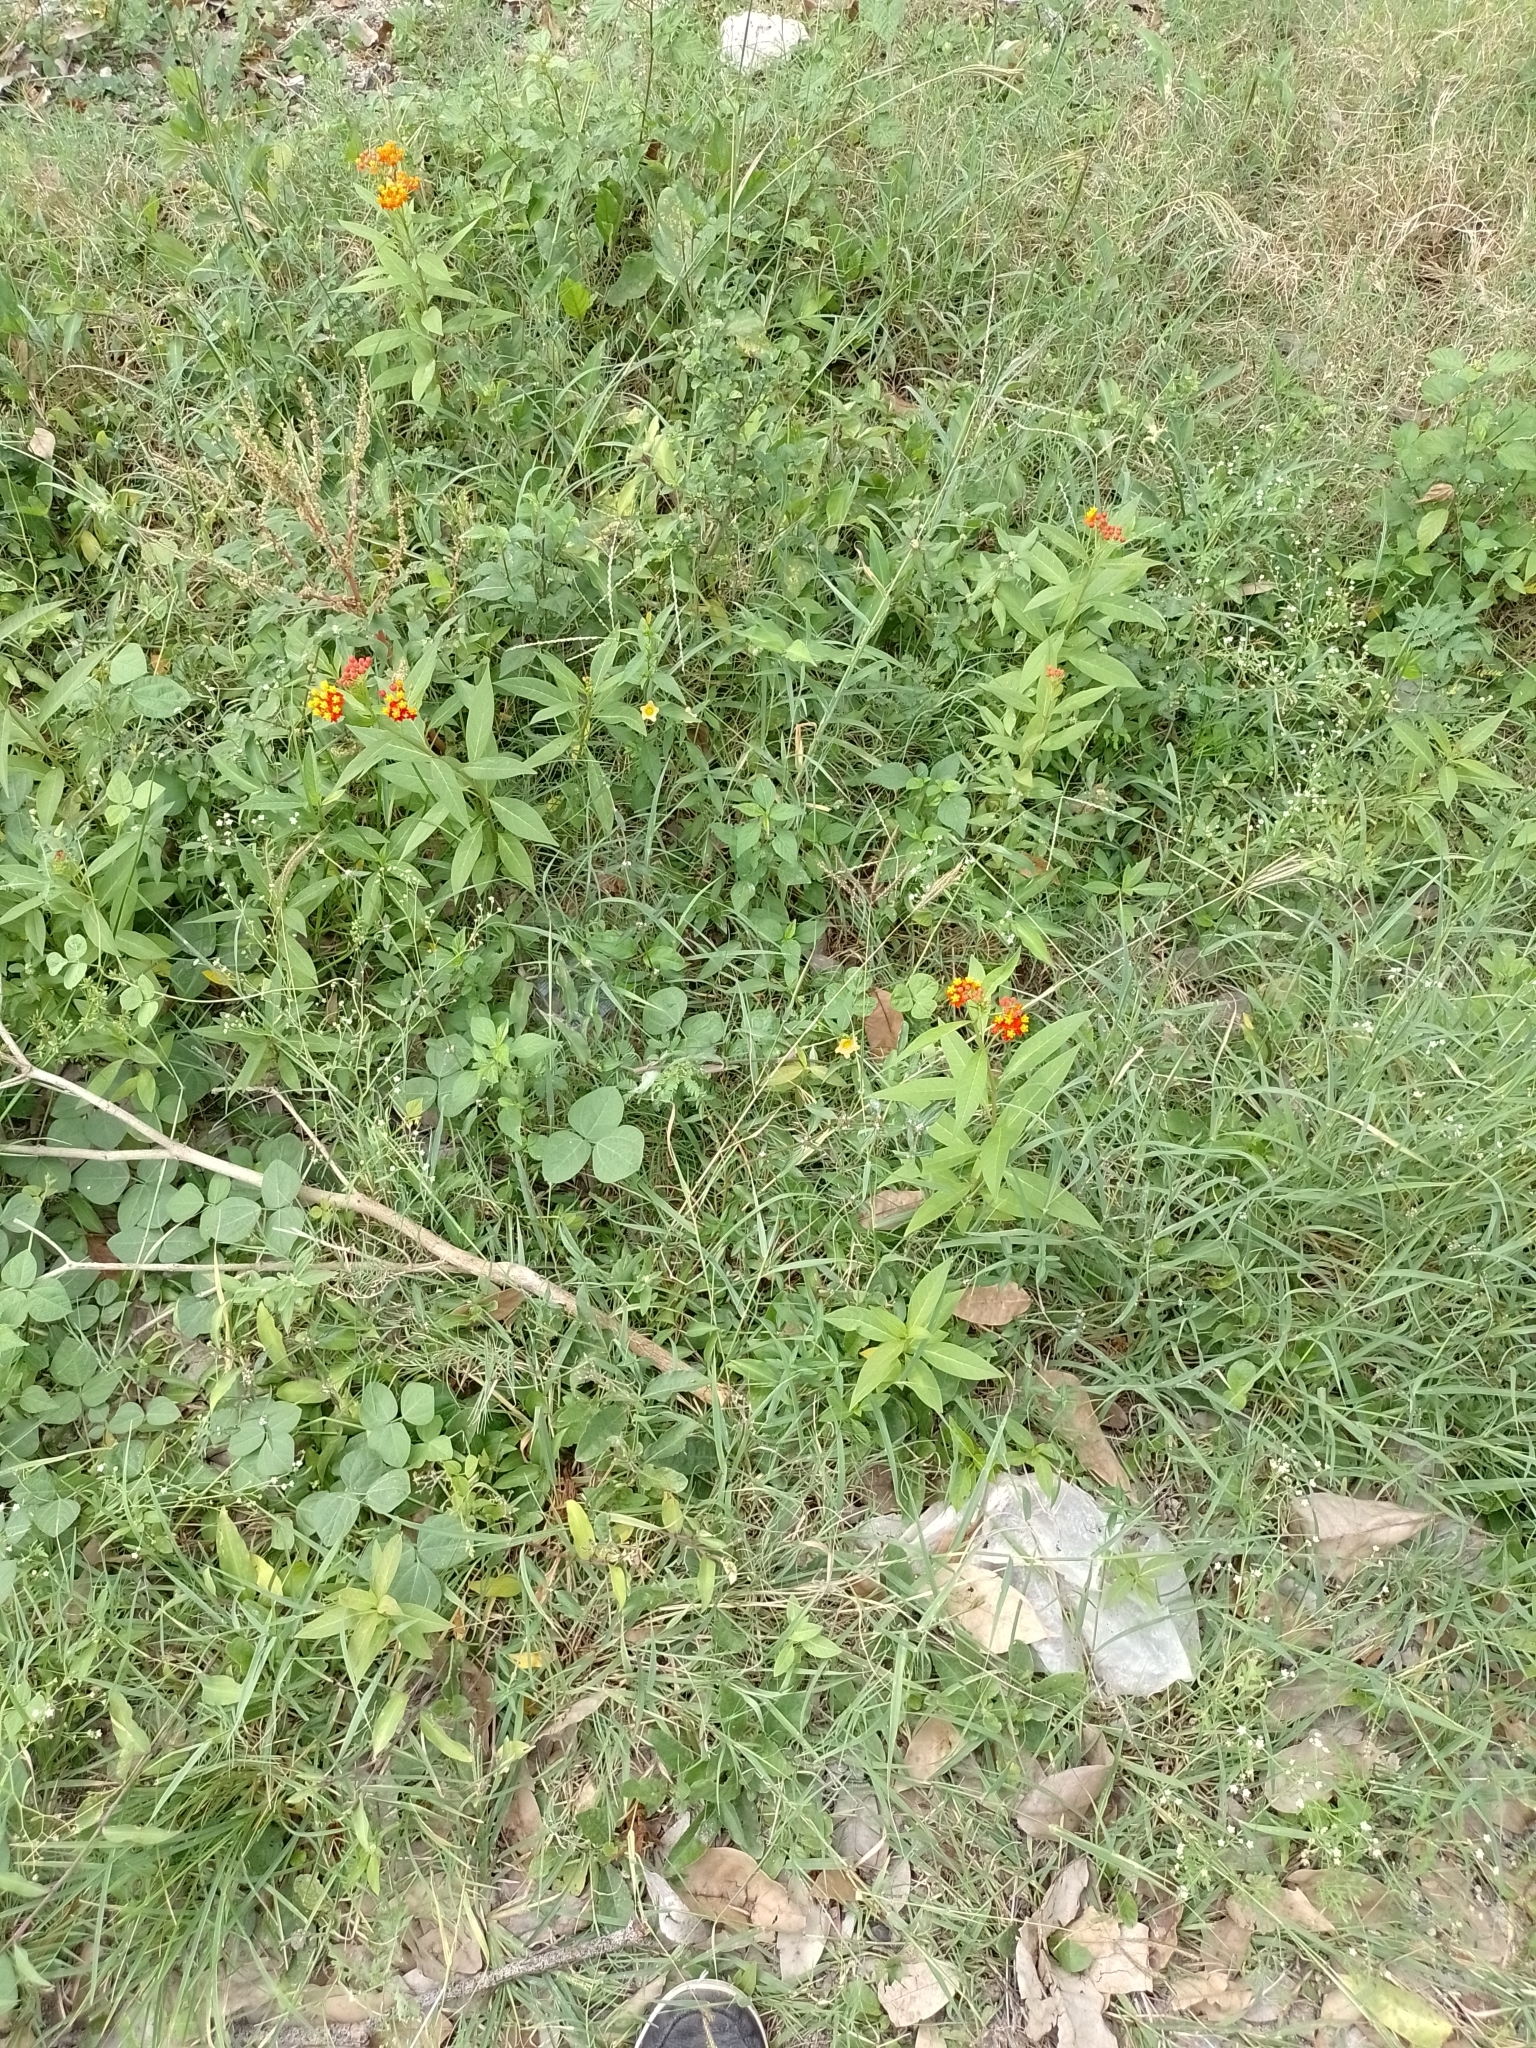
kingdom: Plantae
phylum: Tracheophyta
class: Magnoliopsida
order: Gentianales
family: Apocynaceae
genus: Asclepias
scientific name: Asclepias curassavica
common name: Bloodflower
